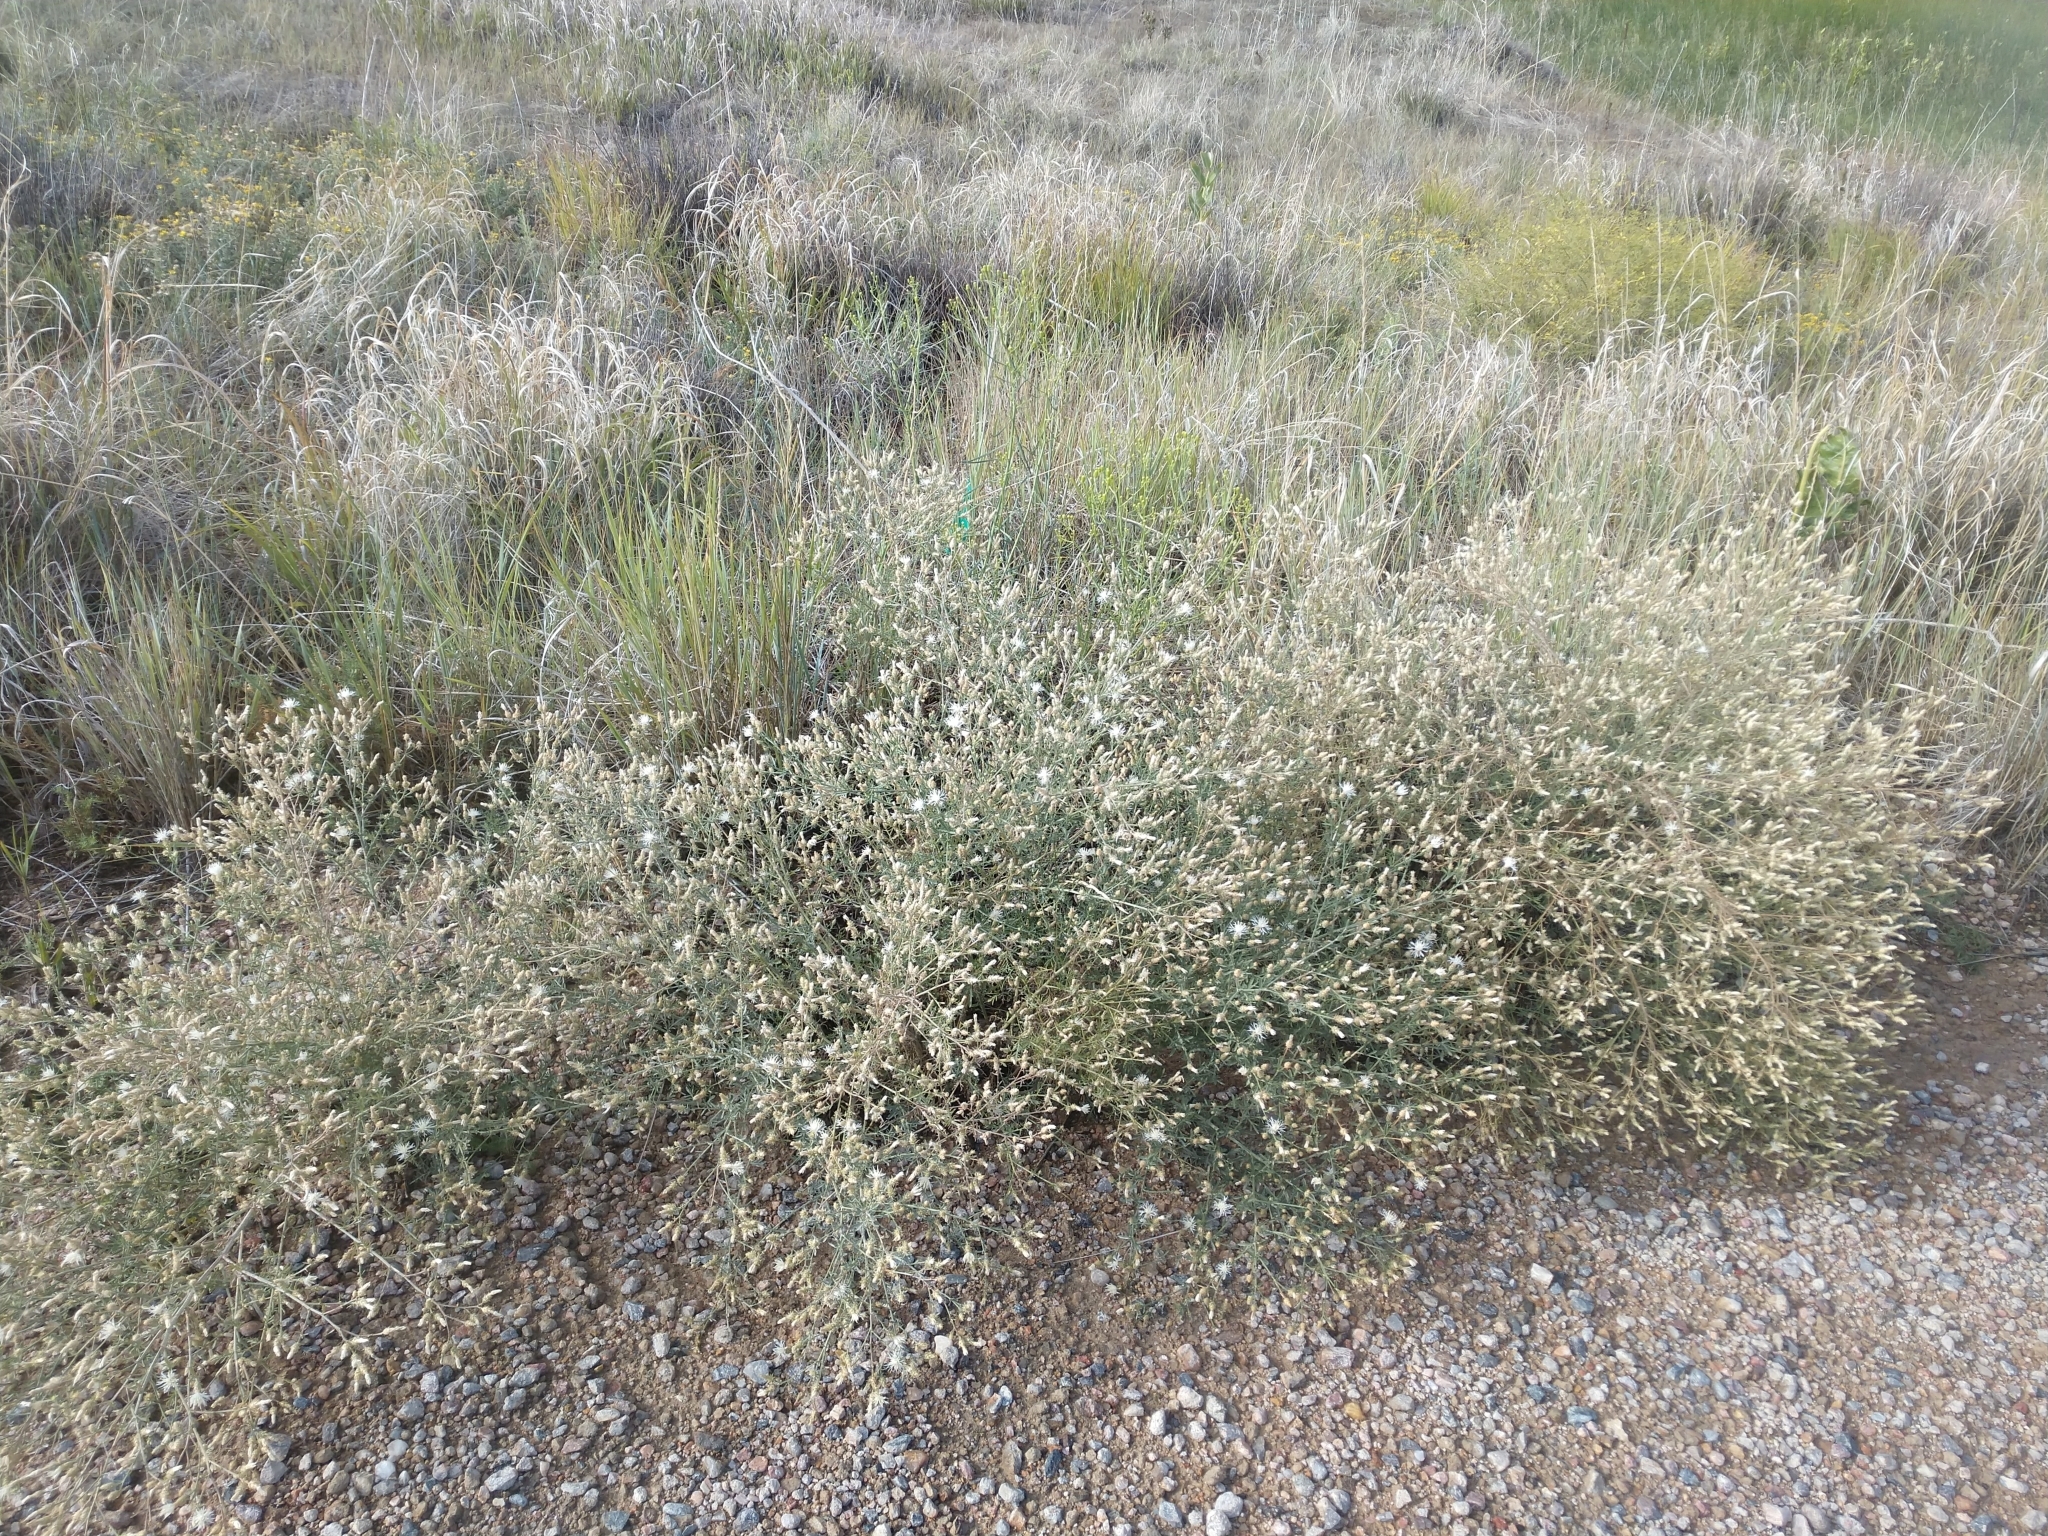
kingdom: Plantae
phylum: Tracheophyta
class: Magnoliopsida
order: Asterales
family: Asteraceae
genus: Centaurea
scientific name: Centaurea diffusa
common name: Diffuse knapweed
